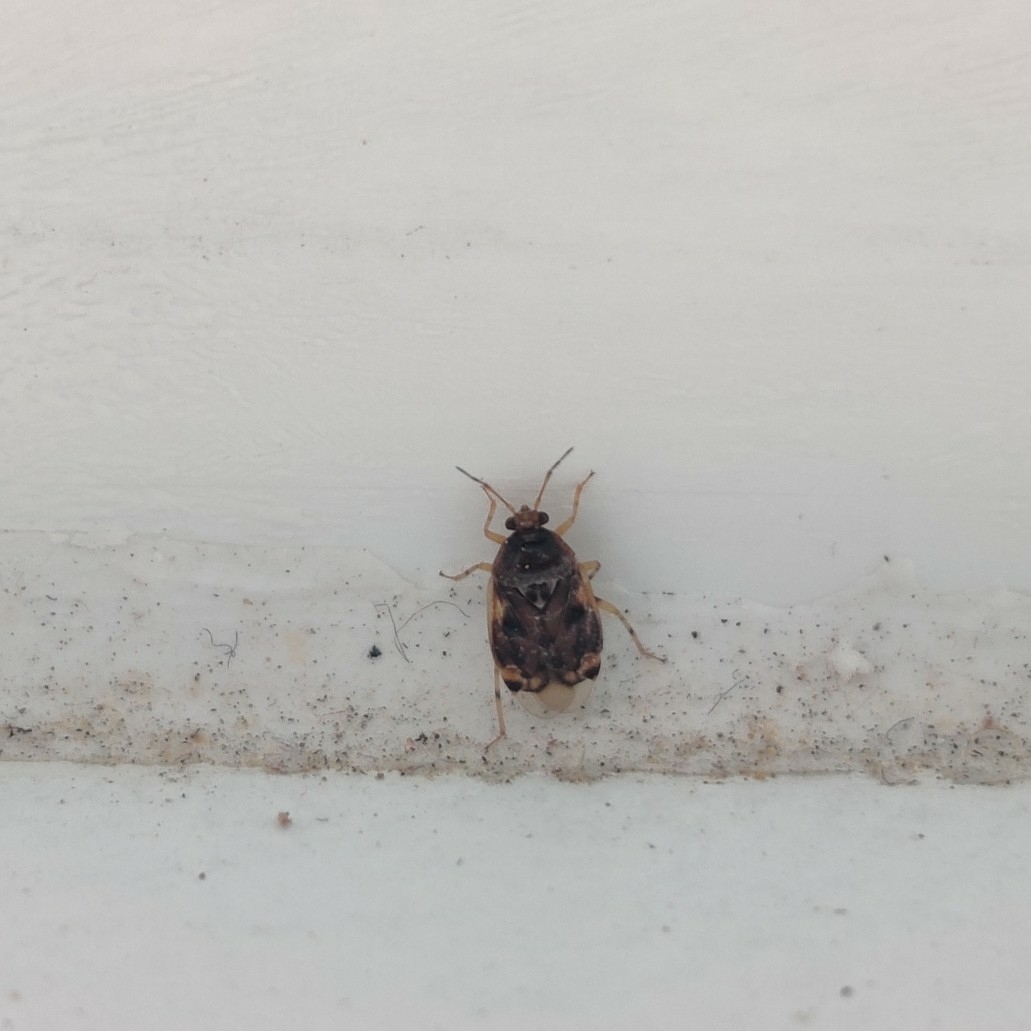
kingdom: Animalia
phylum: Arthropoda
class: Insecta
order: Hemiptera
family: Miridae
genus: Deraeocoris
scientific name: Deraeocoris lutescens
